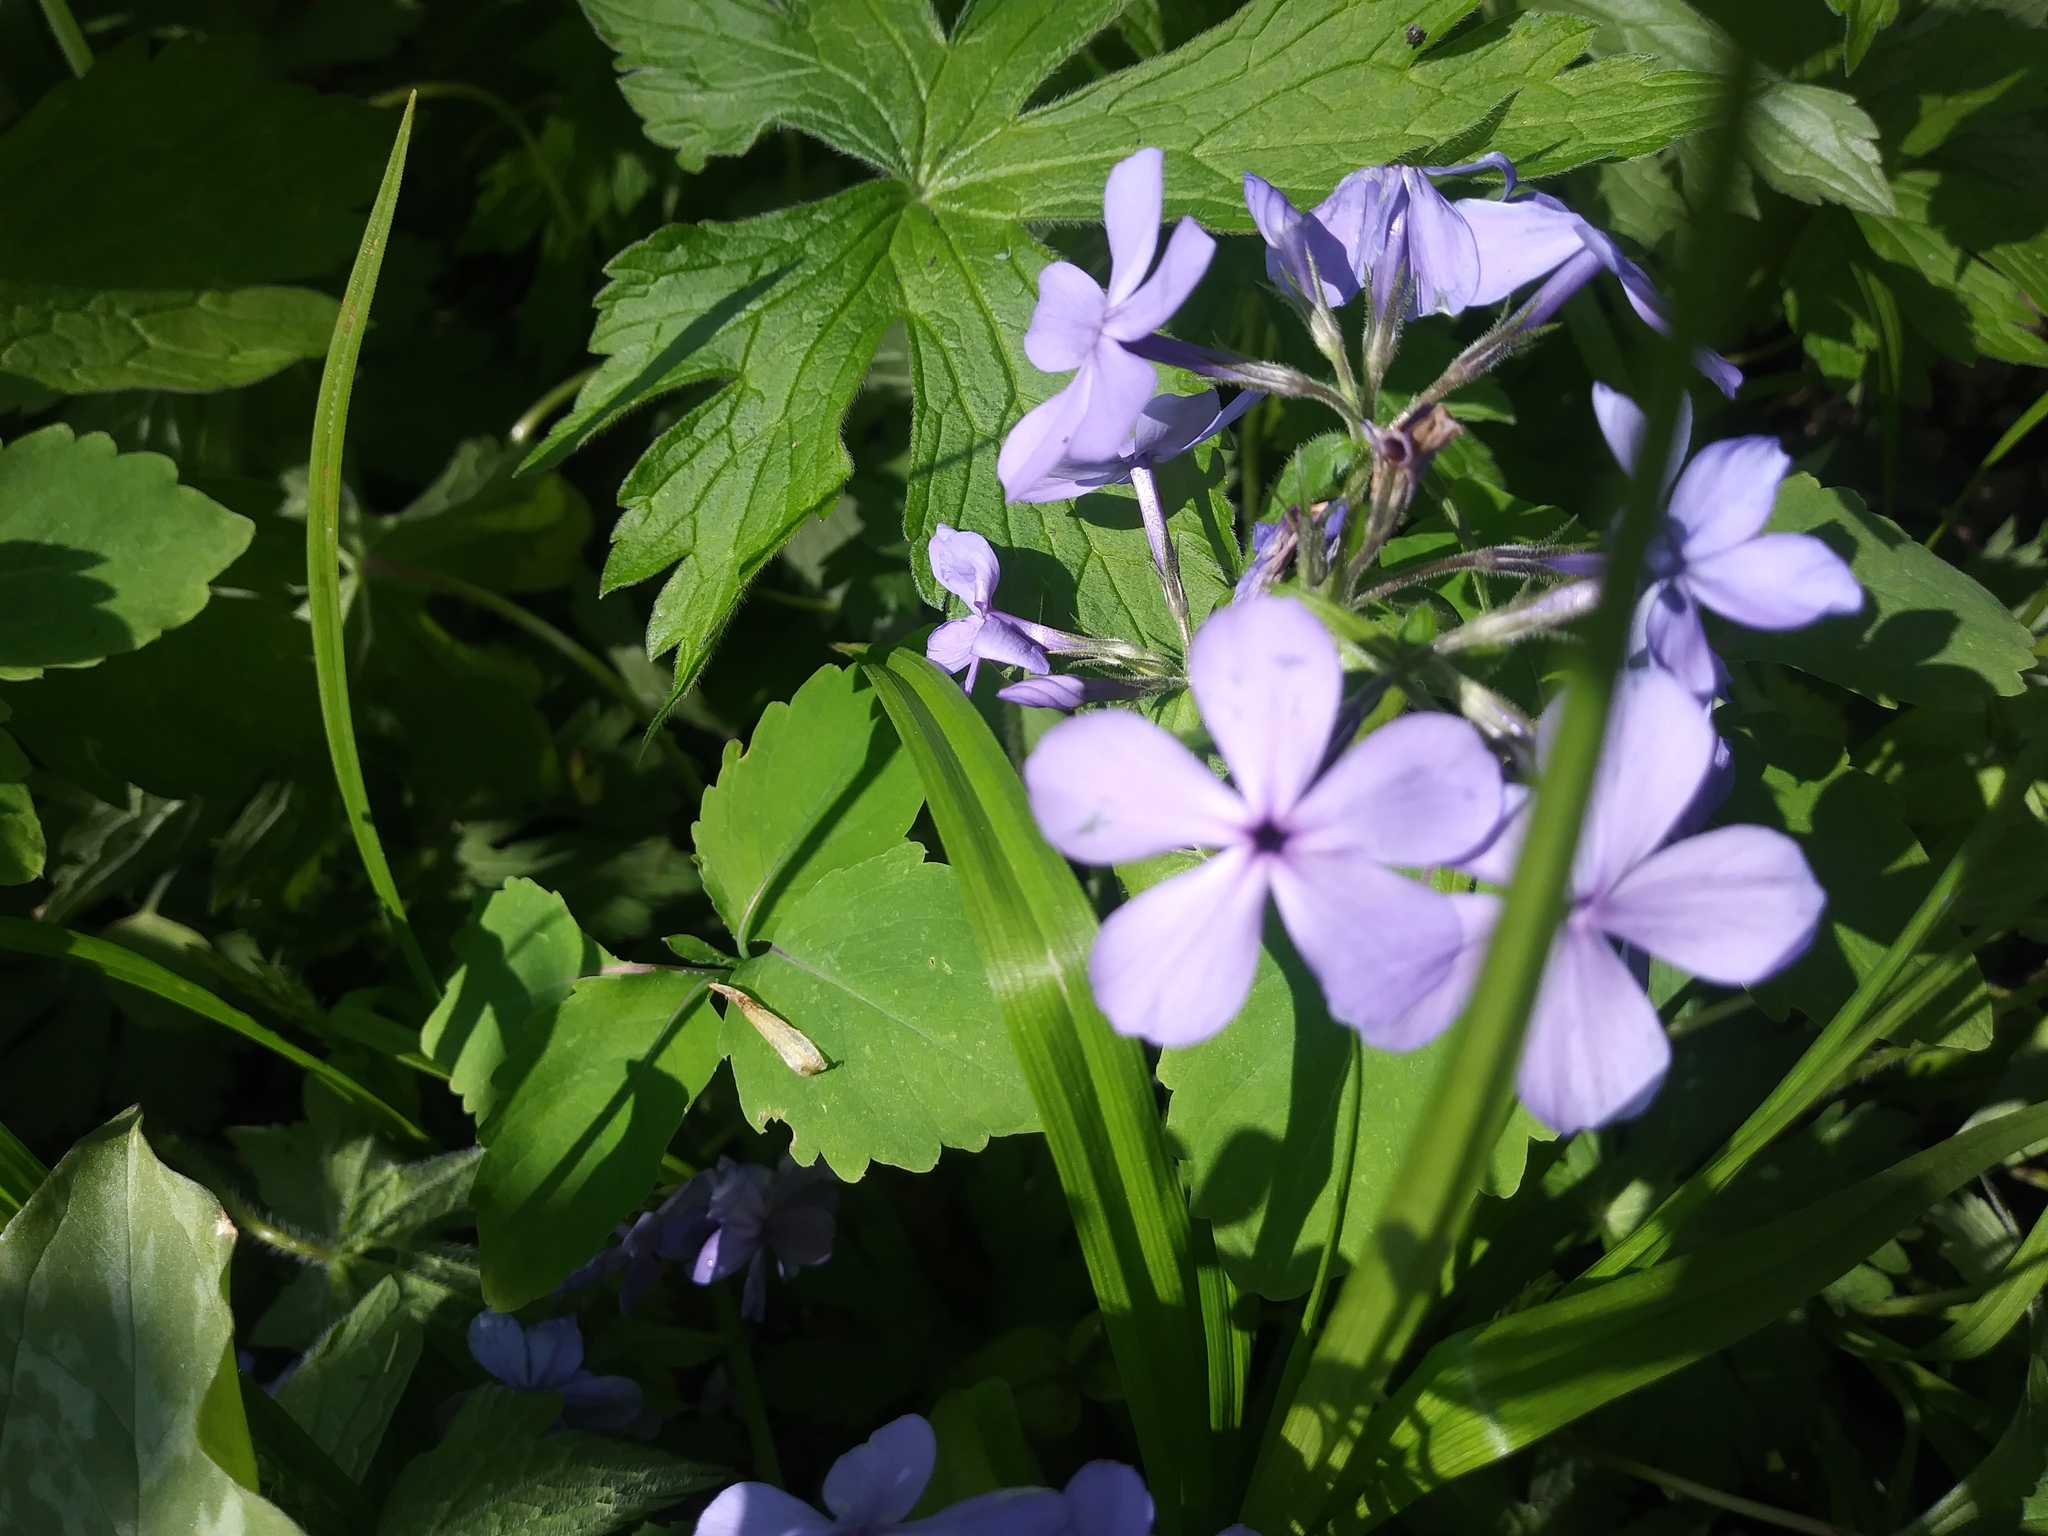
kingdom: Plantae
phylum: Tracheophyta
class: Magnoliopsida
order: Ericales
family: Polemoniaceae
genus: Phlox
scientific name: Phlox divaricata
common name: Blue phlox
